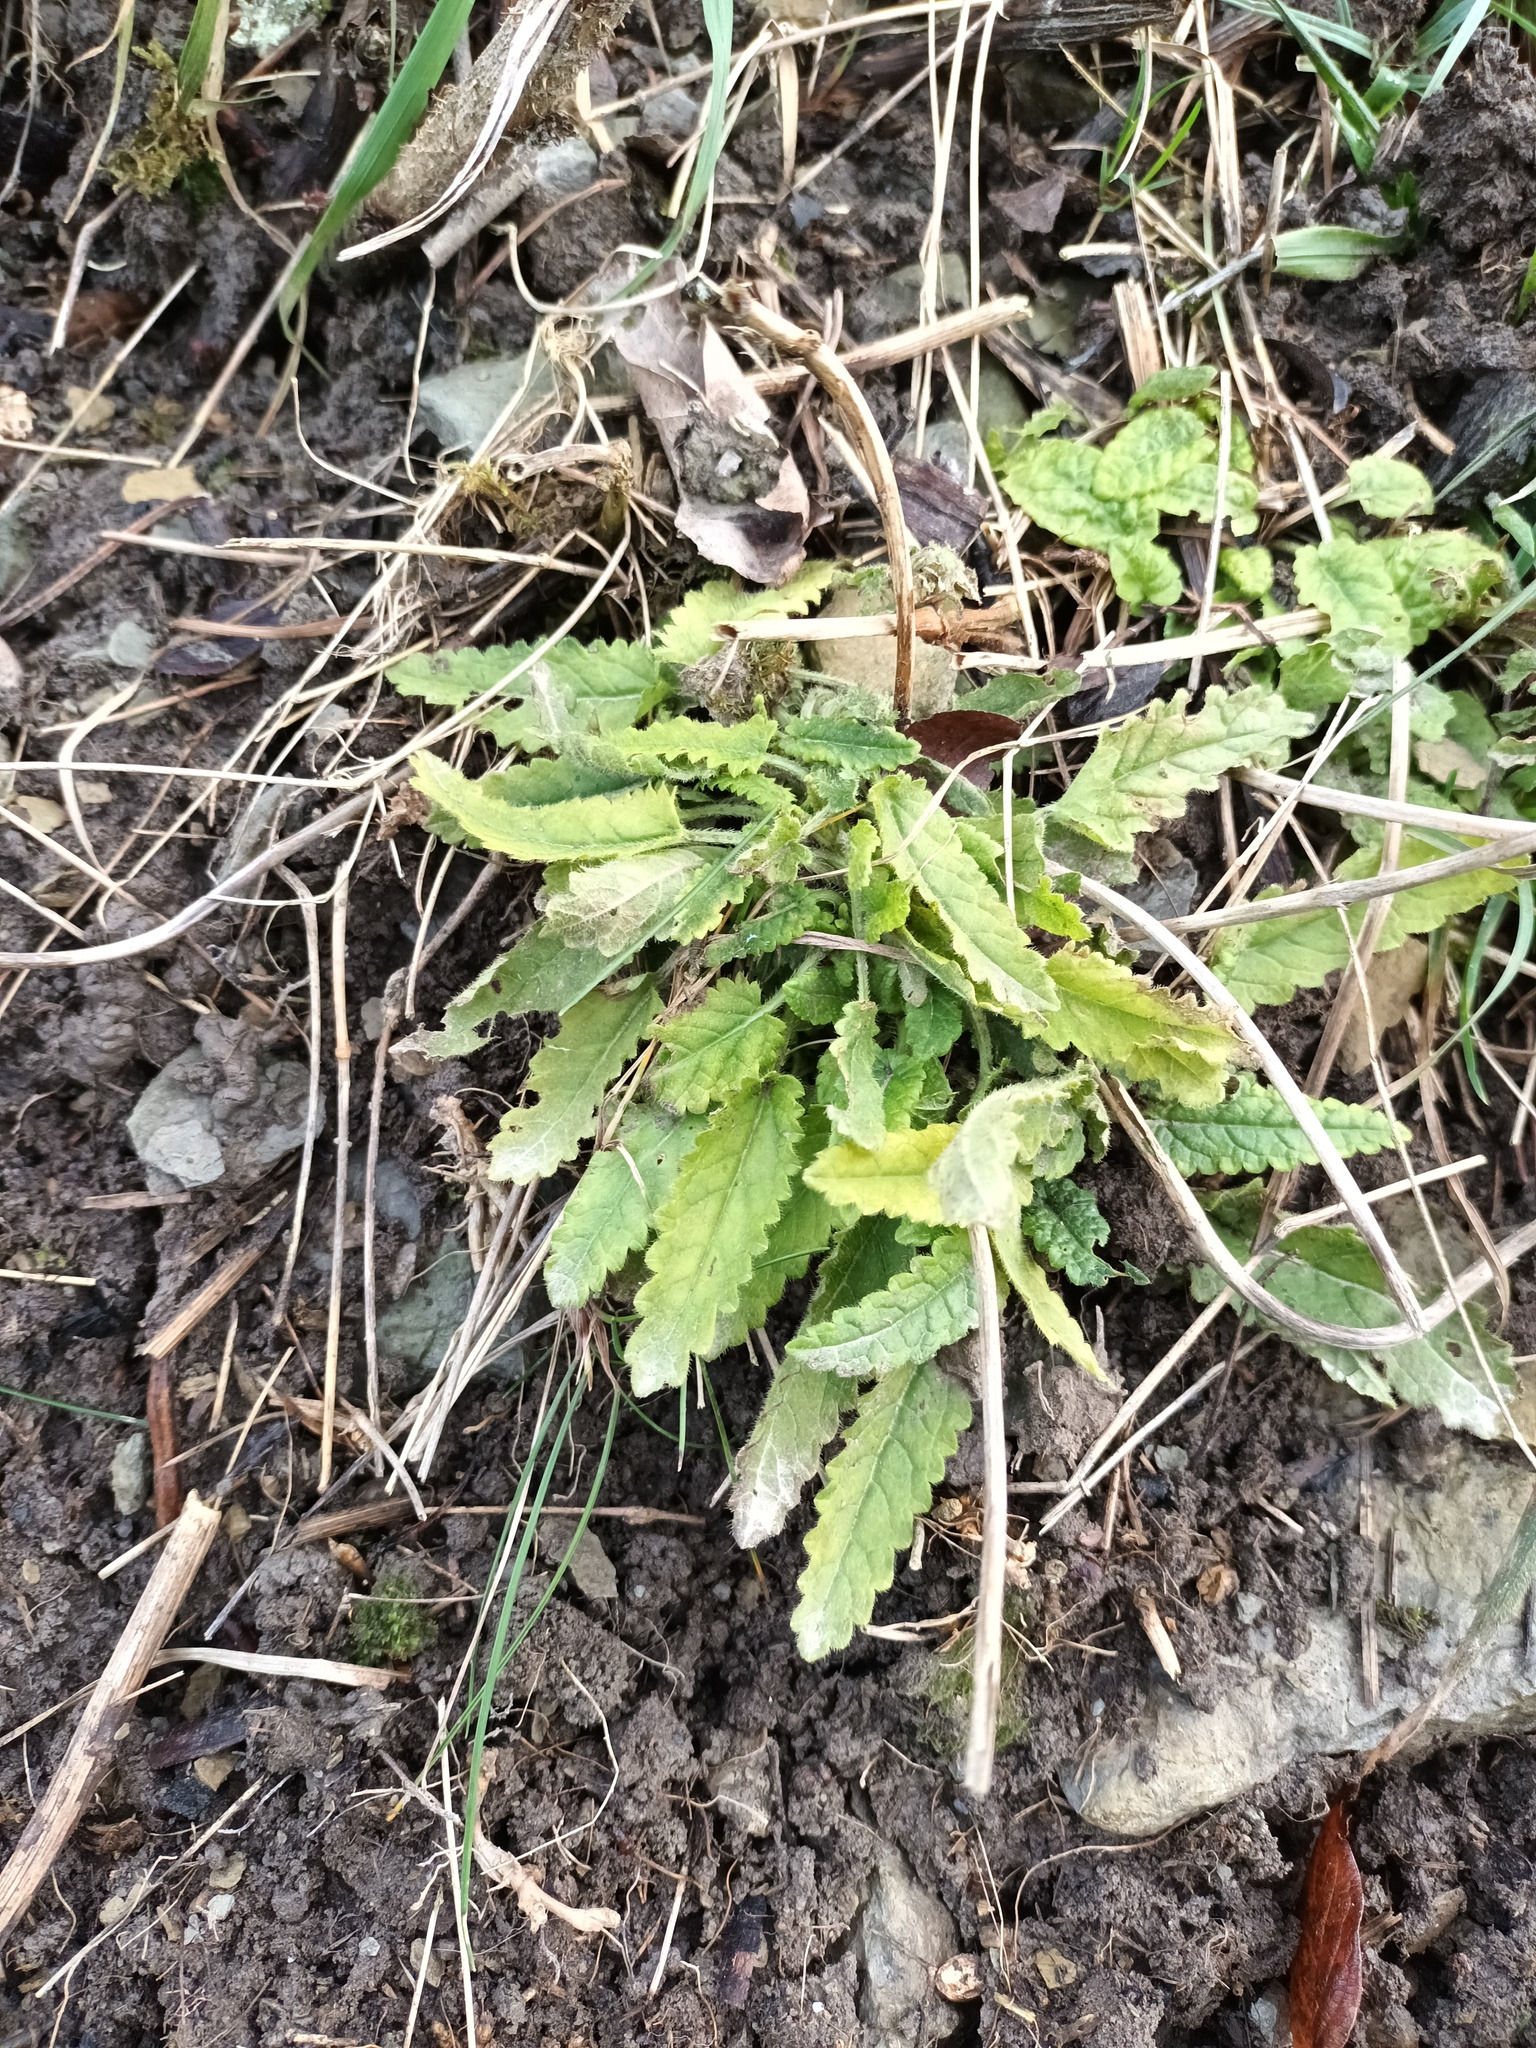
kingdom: Plantae
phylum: Tracheophyta
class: Magnoliopsida
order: Lamiales
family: Lamiaceae
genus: Betonica
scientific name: Betonica officinalis
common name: Bishop's-wort
